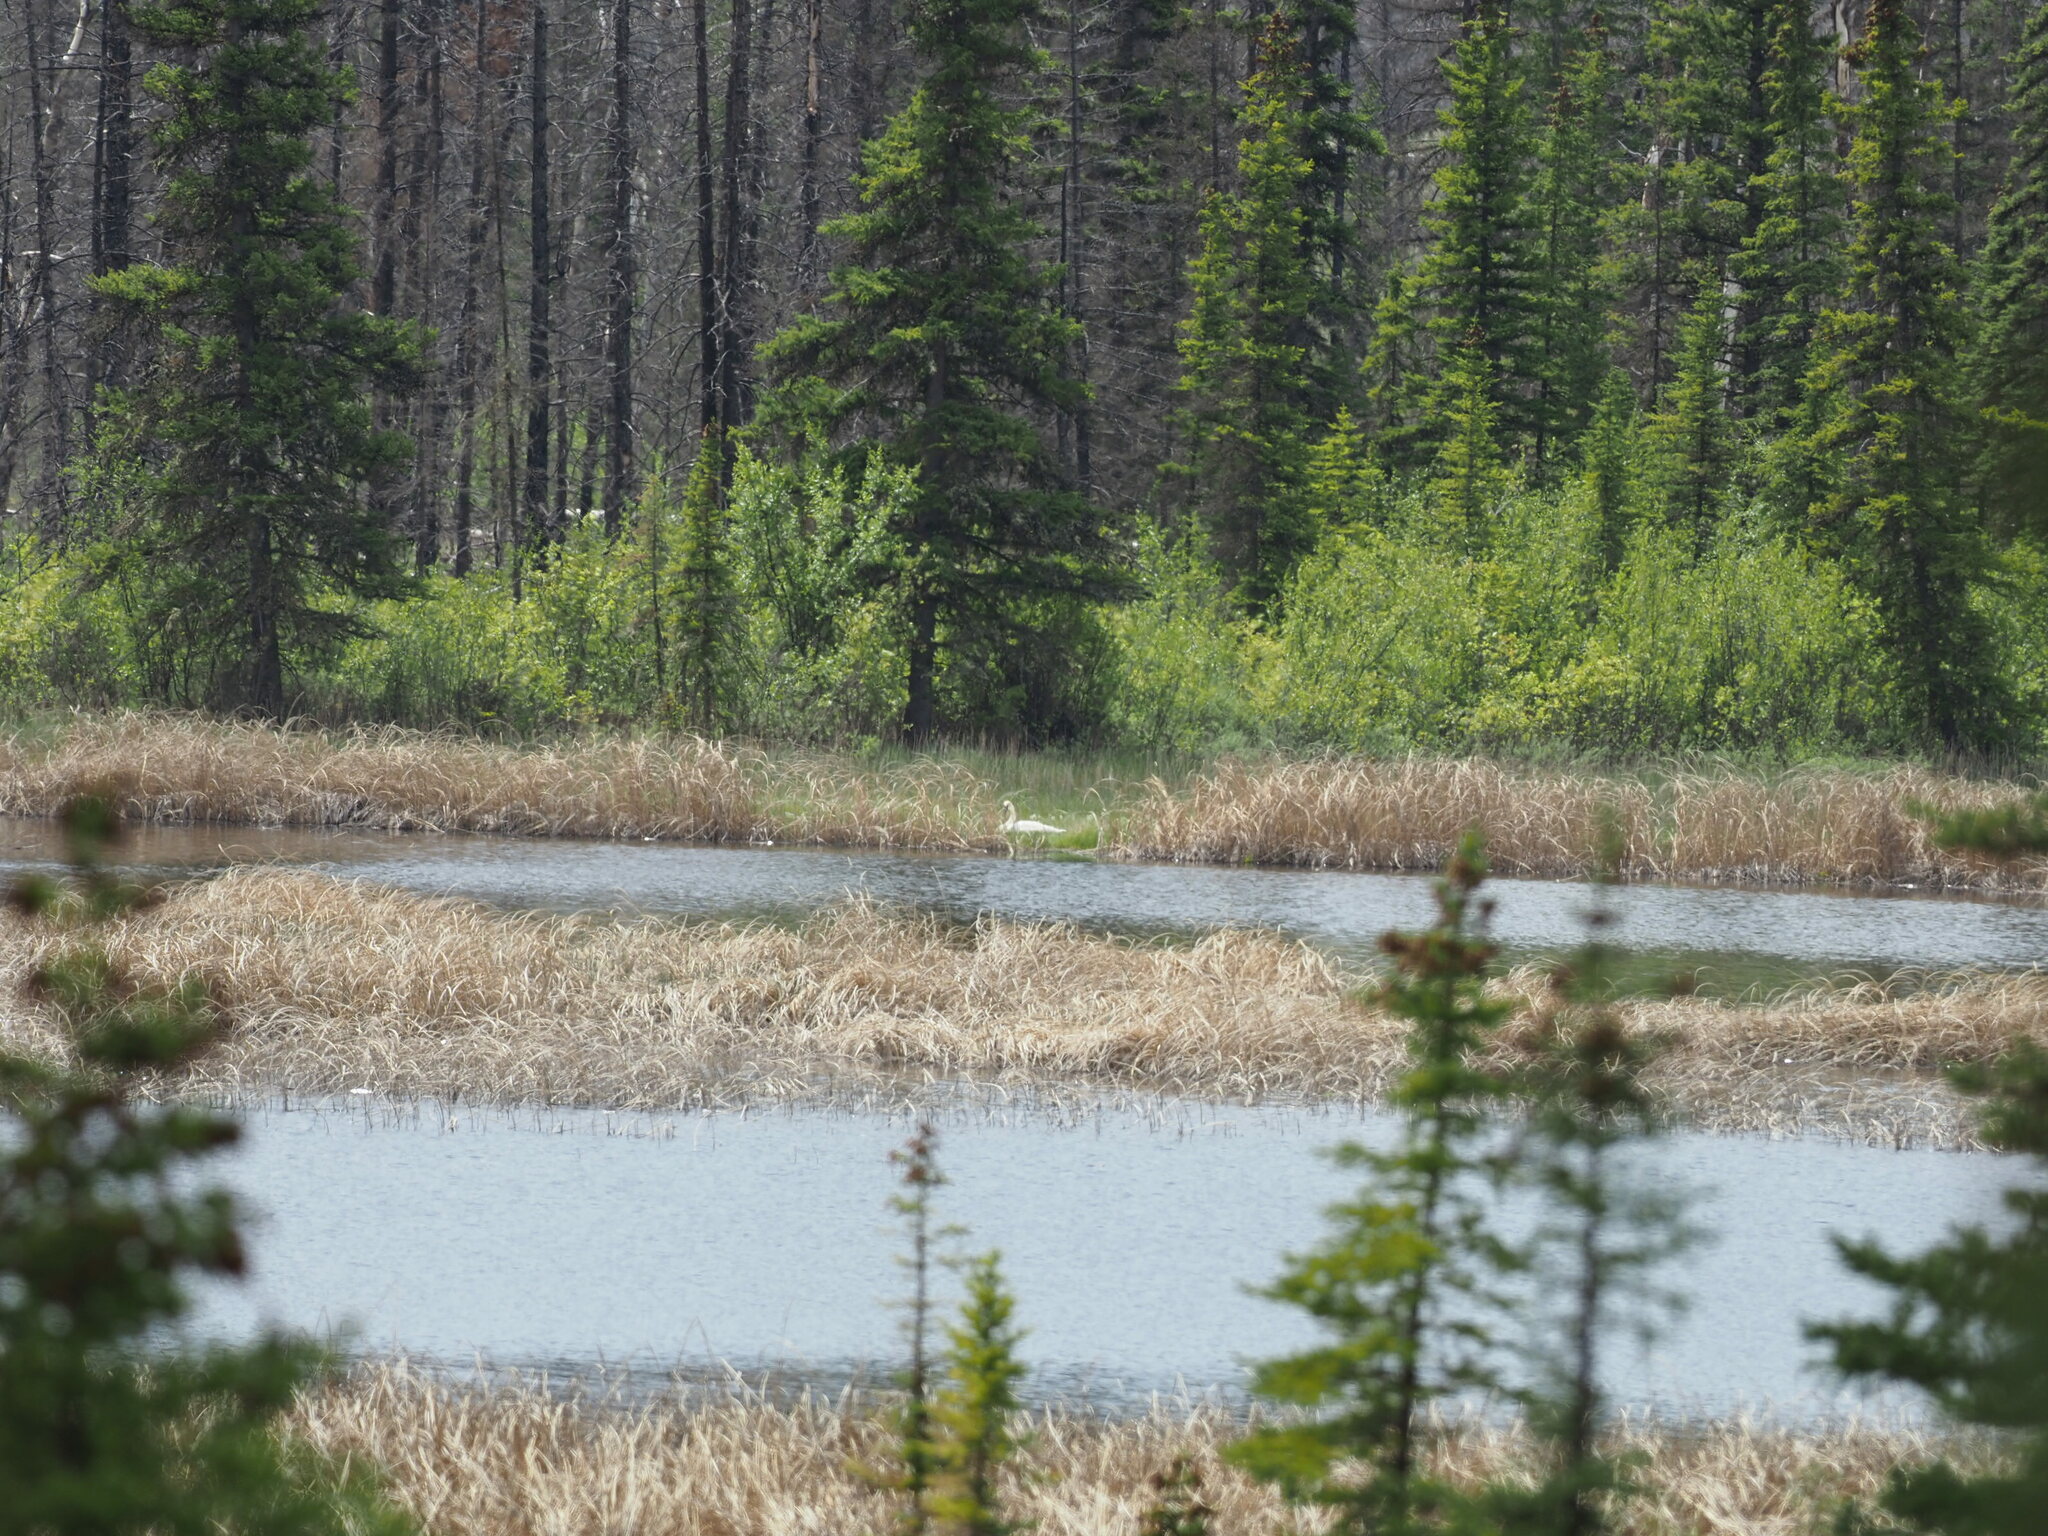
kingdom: Animalia
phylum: Chordata
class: Aves
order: Anseriformes
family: Anatidae
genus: Cygnus
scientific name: Cygnus buccinator
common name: Trumpeter swan
